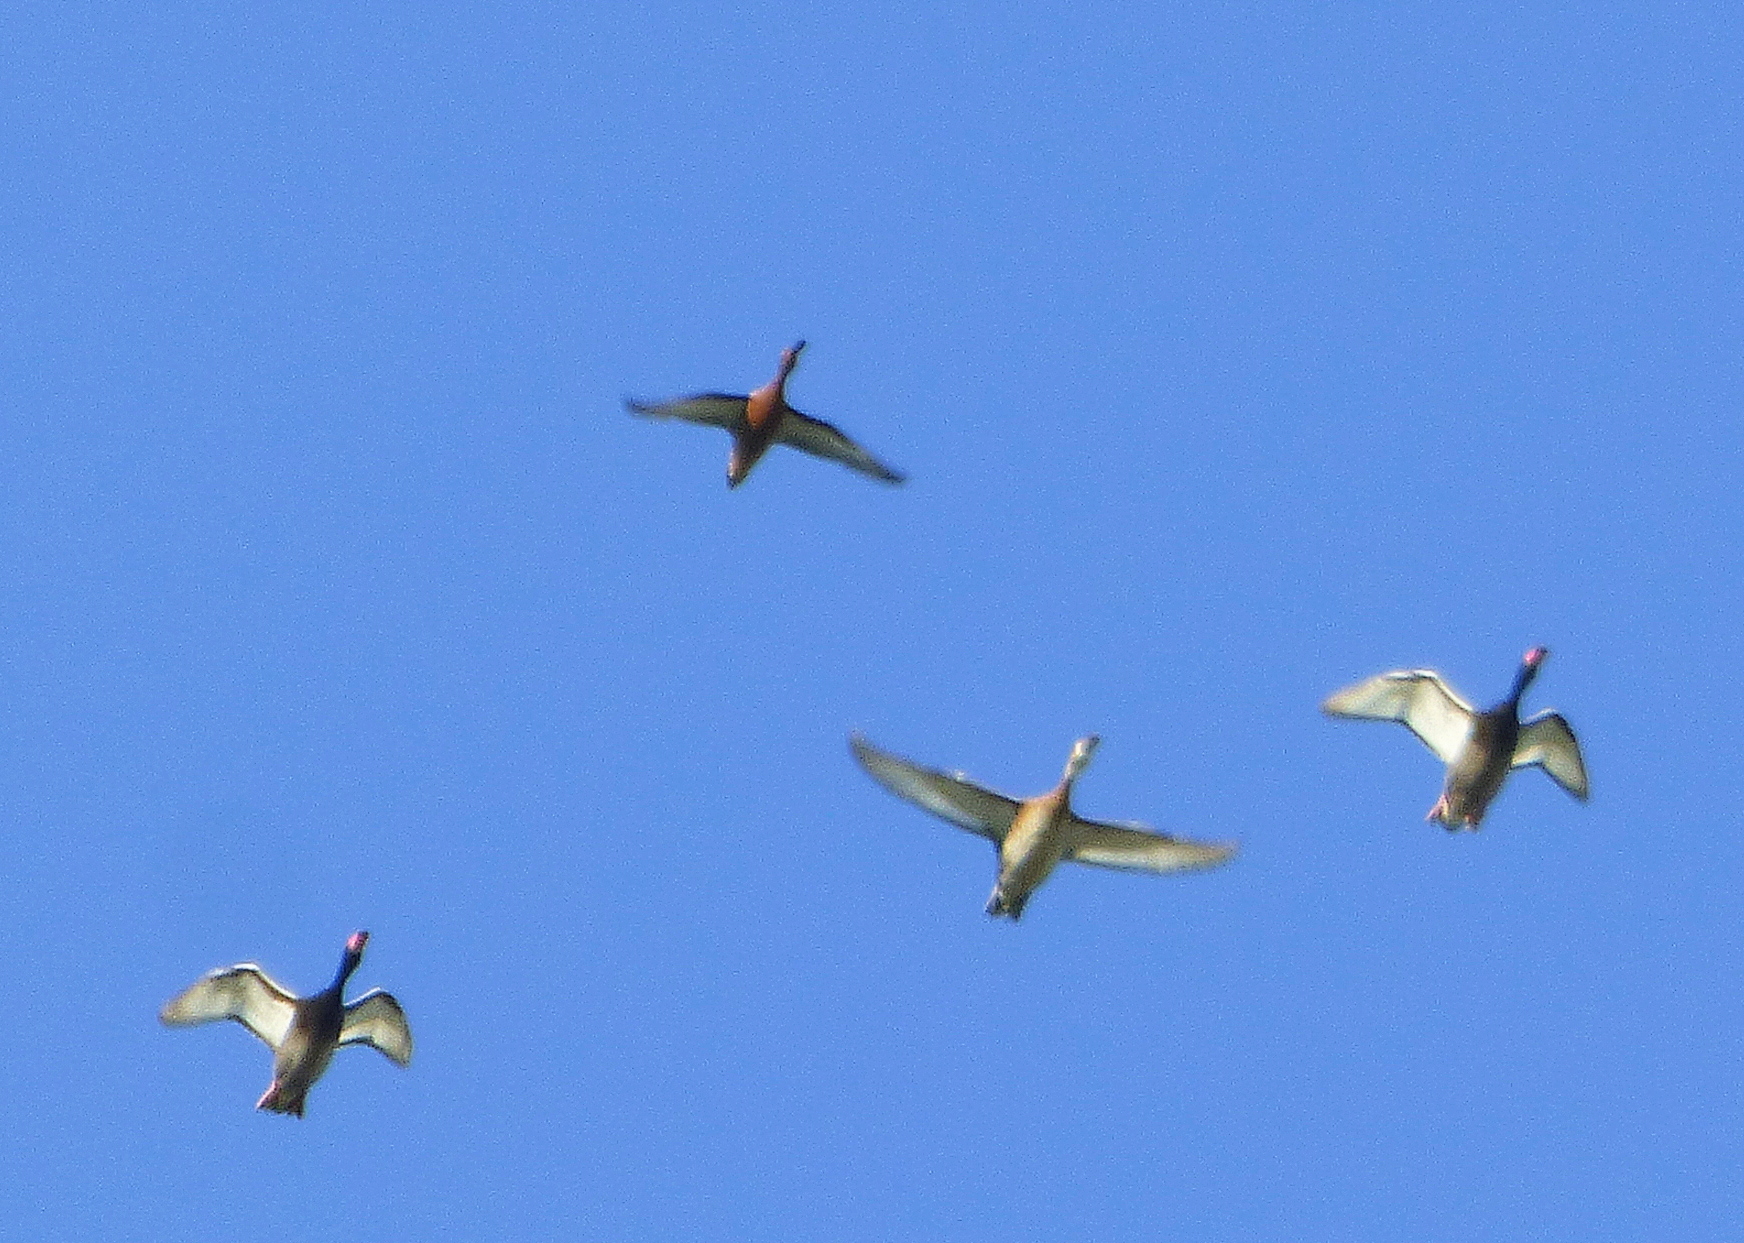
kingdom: Animalia
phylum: Chordata
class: Aves
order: Anseriformes
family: Anatidae
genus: Spatula
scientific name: Spatula cyanoptera
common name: Cinnamon teal
